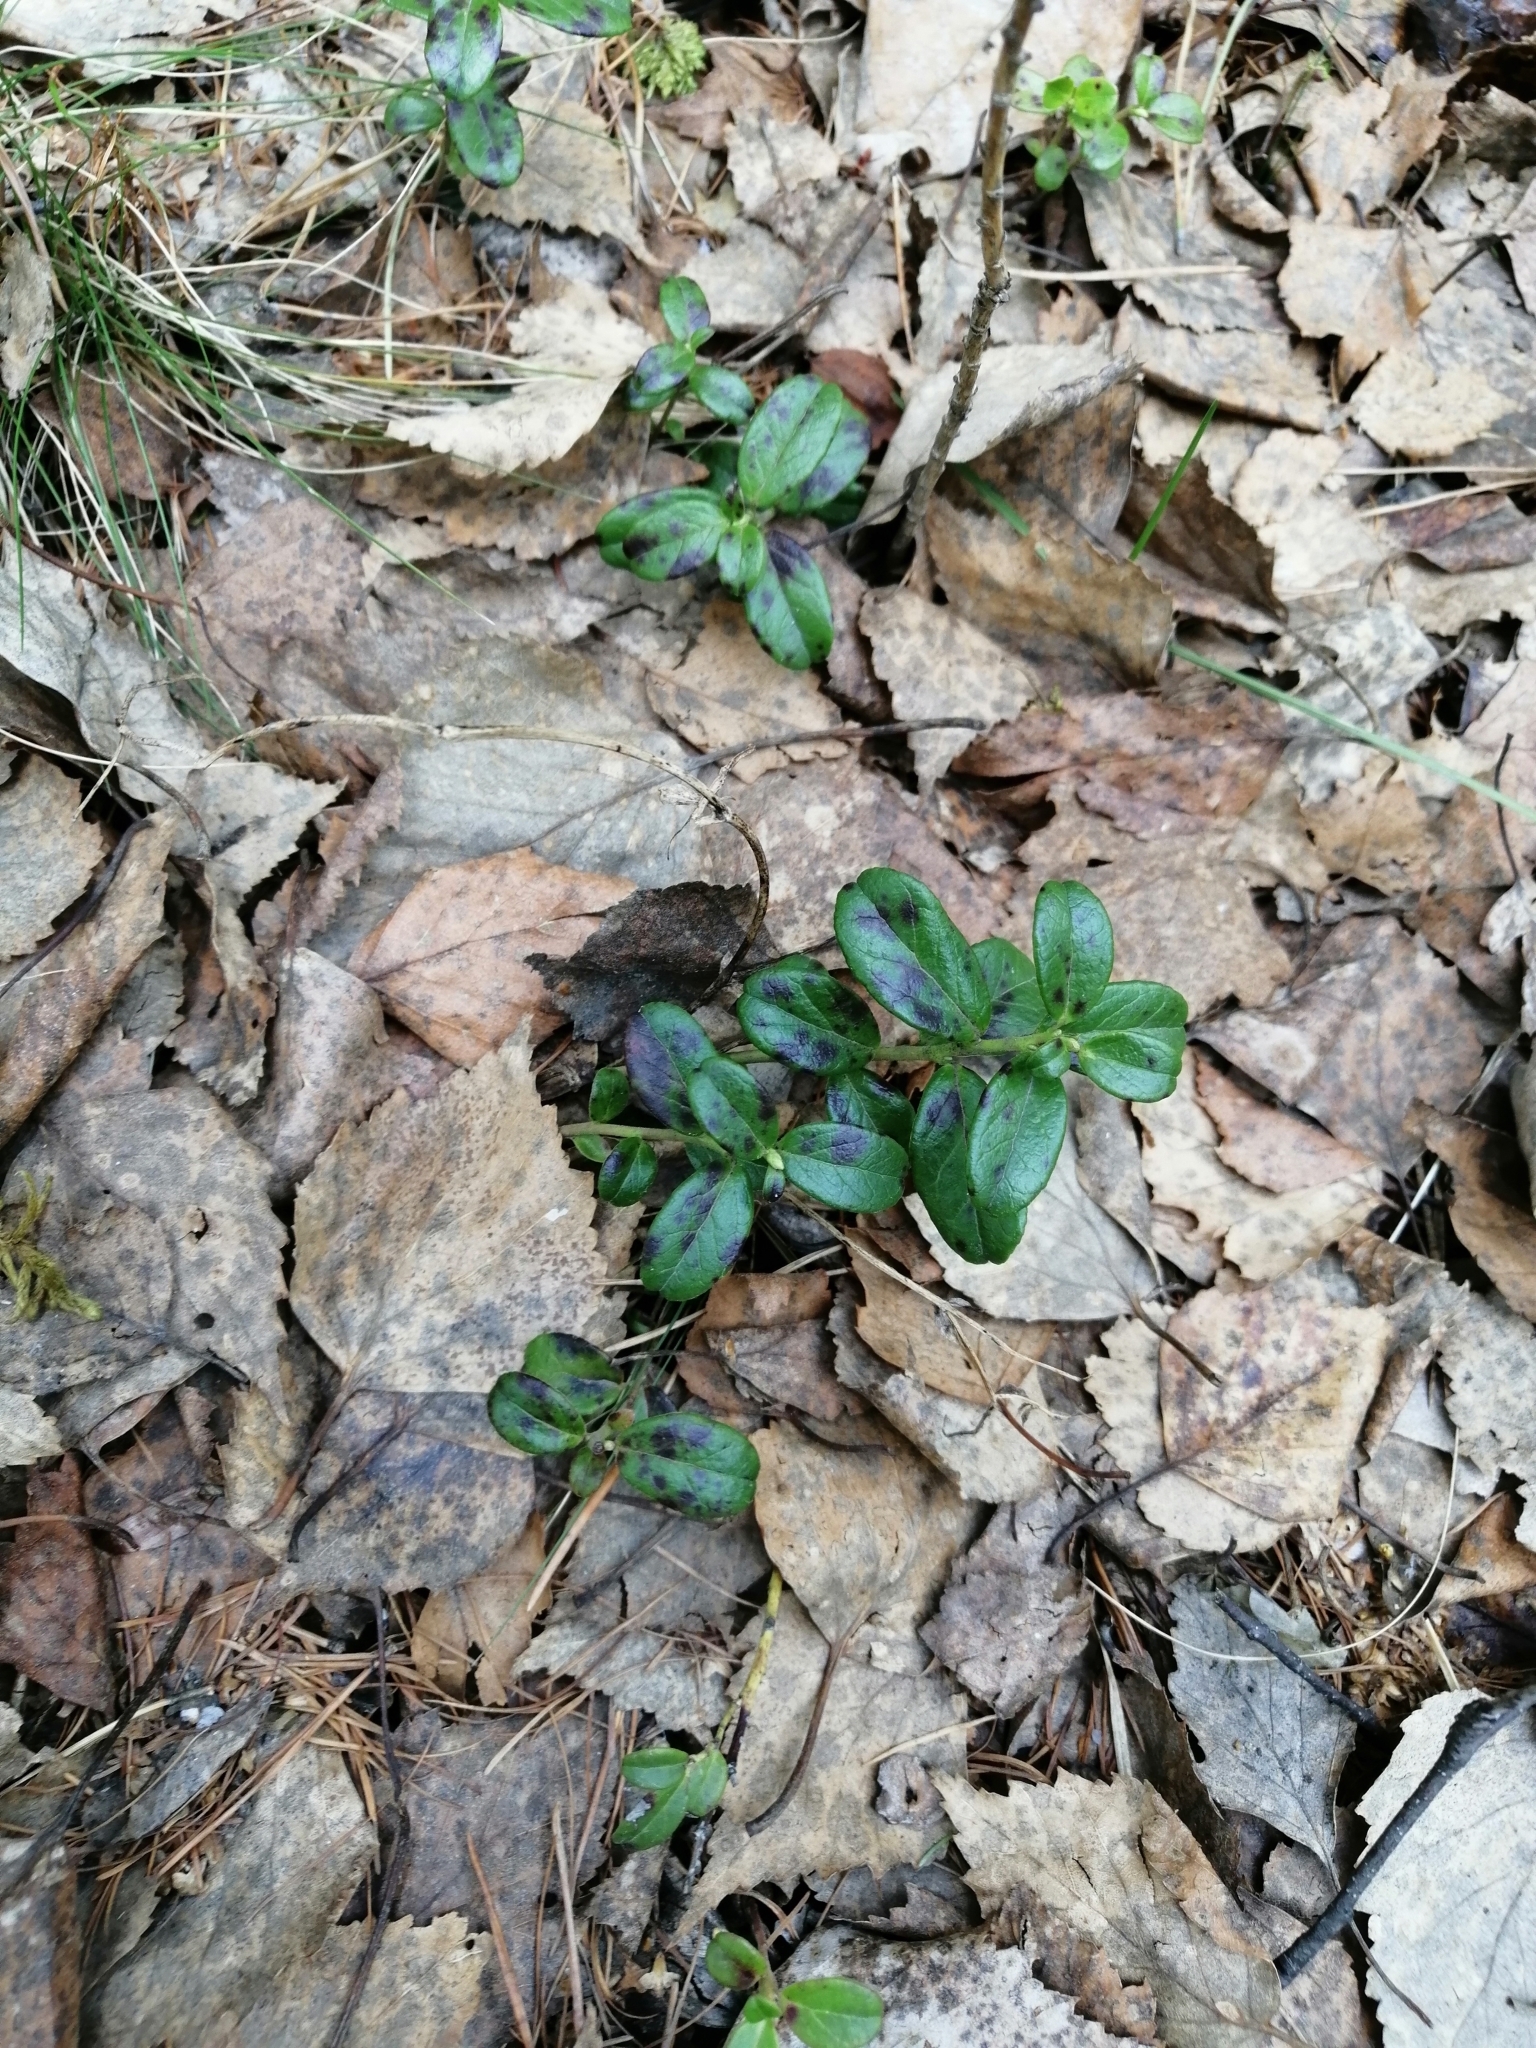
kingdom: Plantae
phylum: Tracheophyta
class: Magnoliopsida
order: Ericales
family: Ericaceae
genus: Vaccinium
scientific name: Vaccinium vitis-idaea
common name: Cowberry
